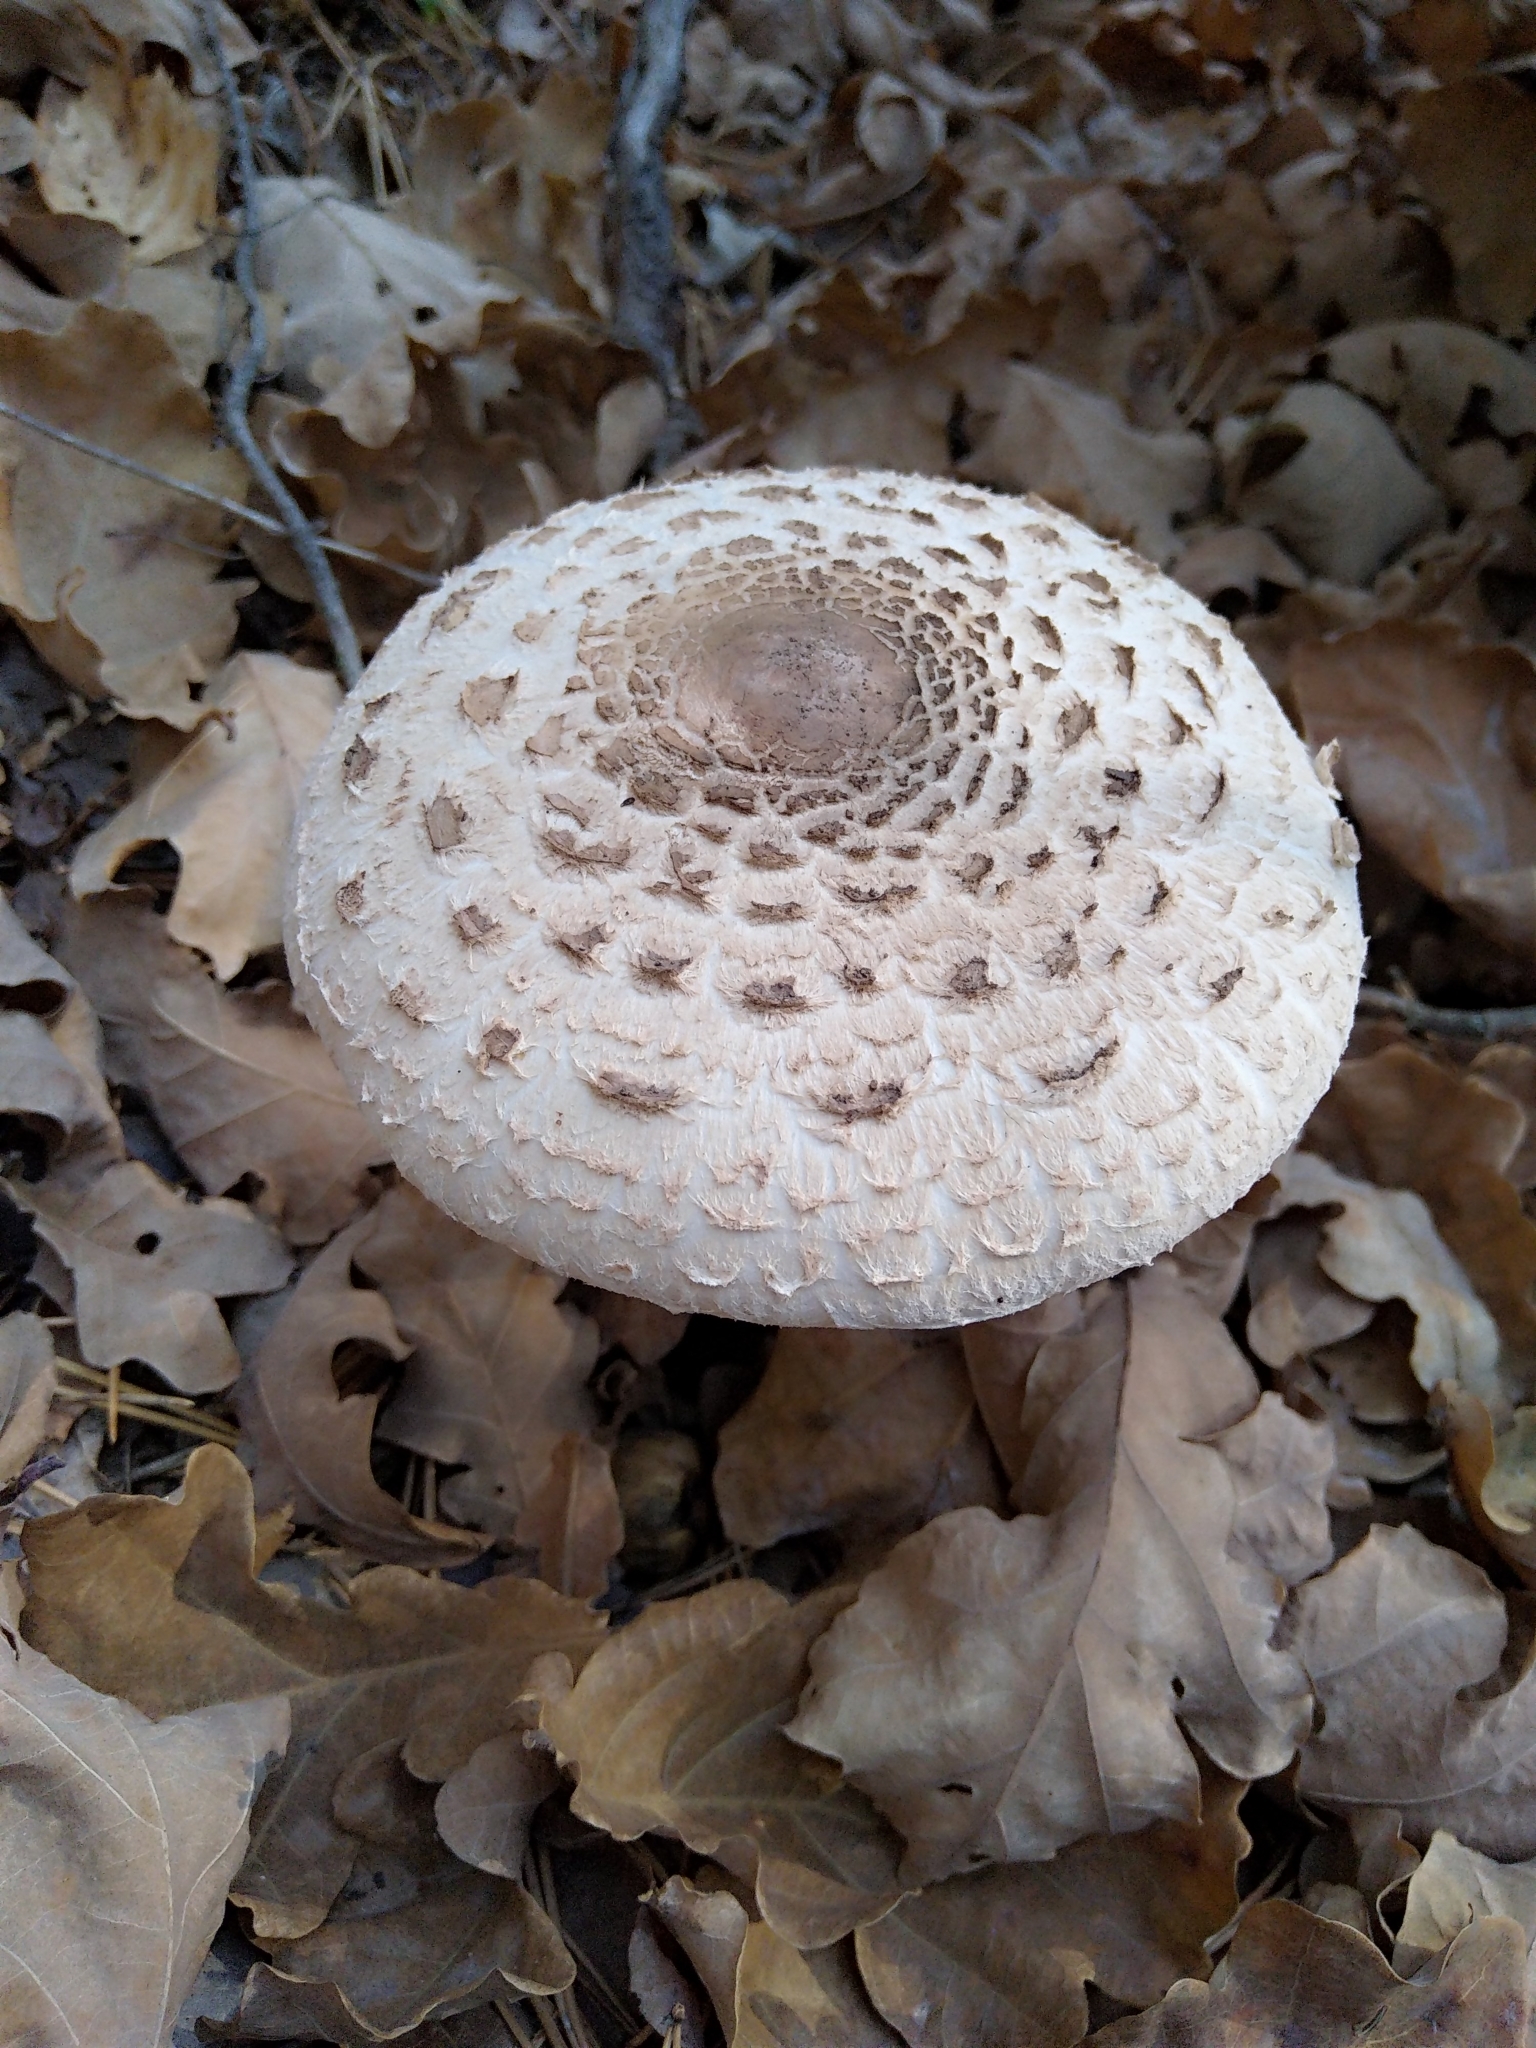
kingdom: Fungi
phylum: Basidiomycota
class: Agaricomycetes
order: Agaricales
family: Agaricaceae
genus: Macrolepiota
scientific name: Macrolepiota procera
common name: Parasol
